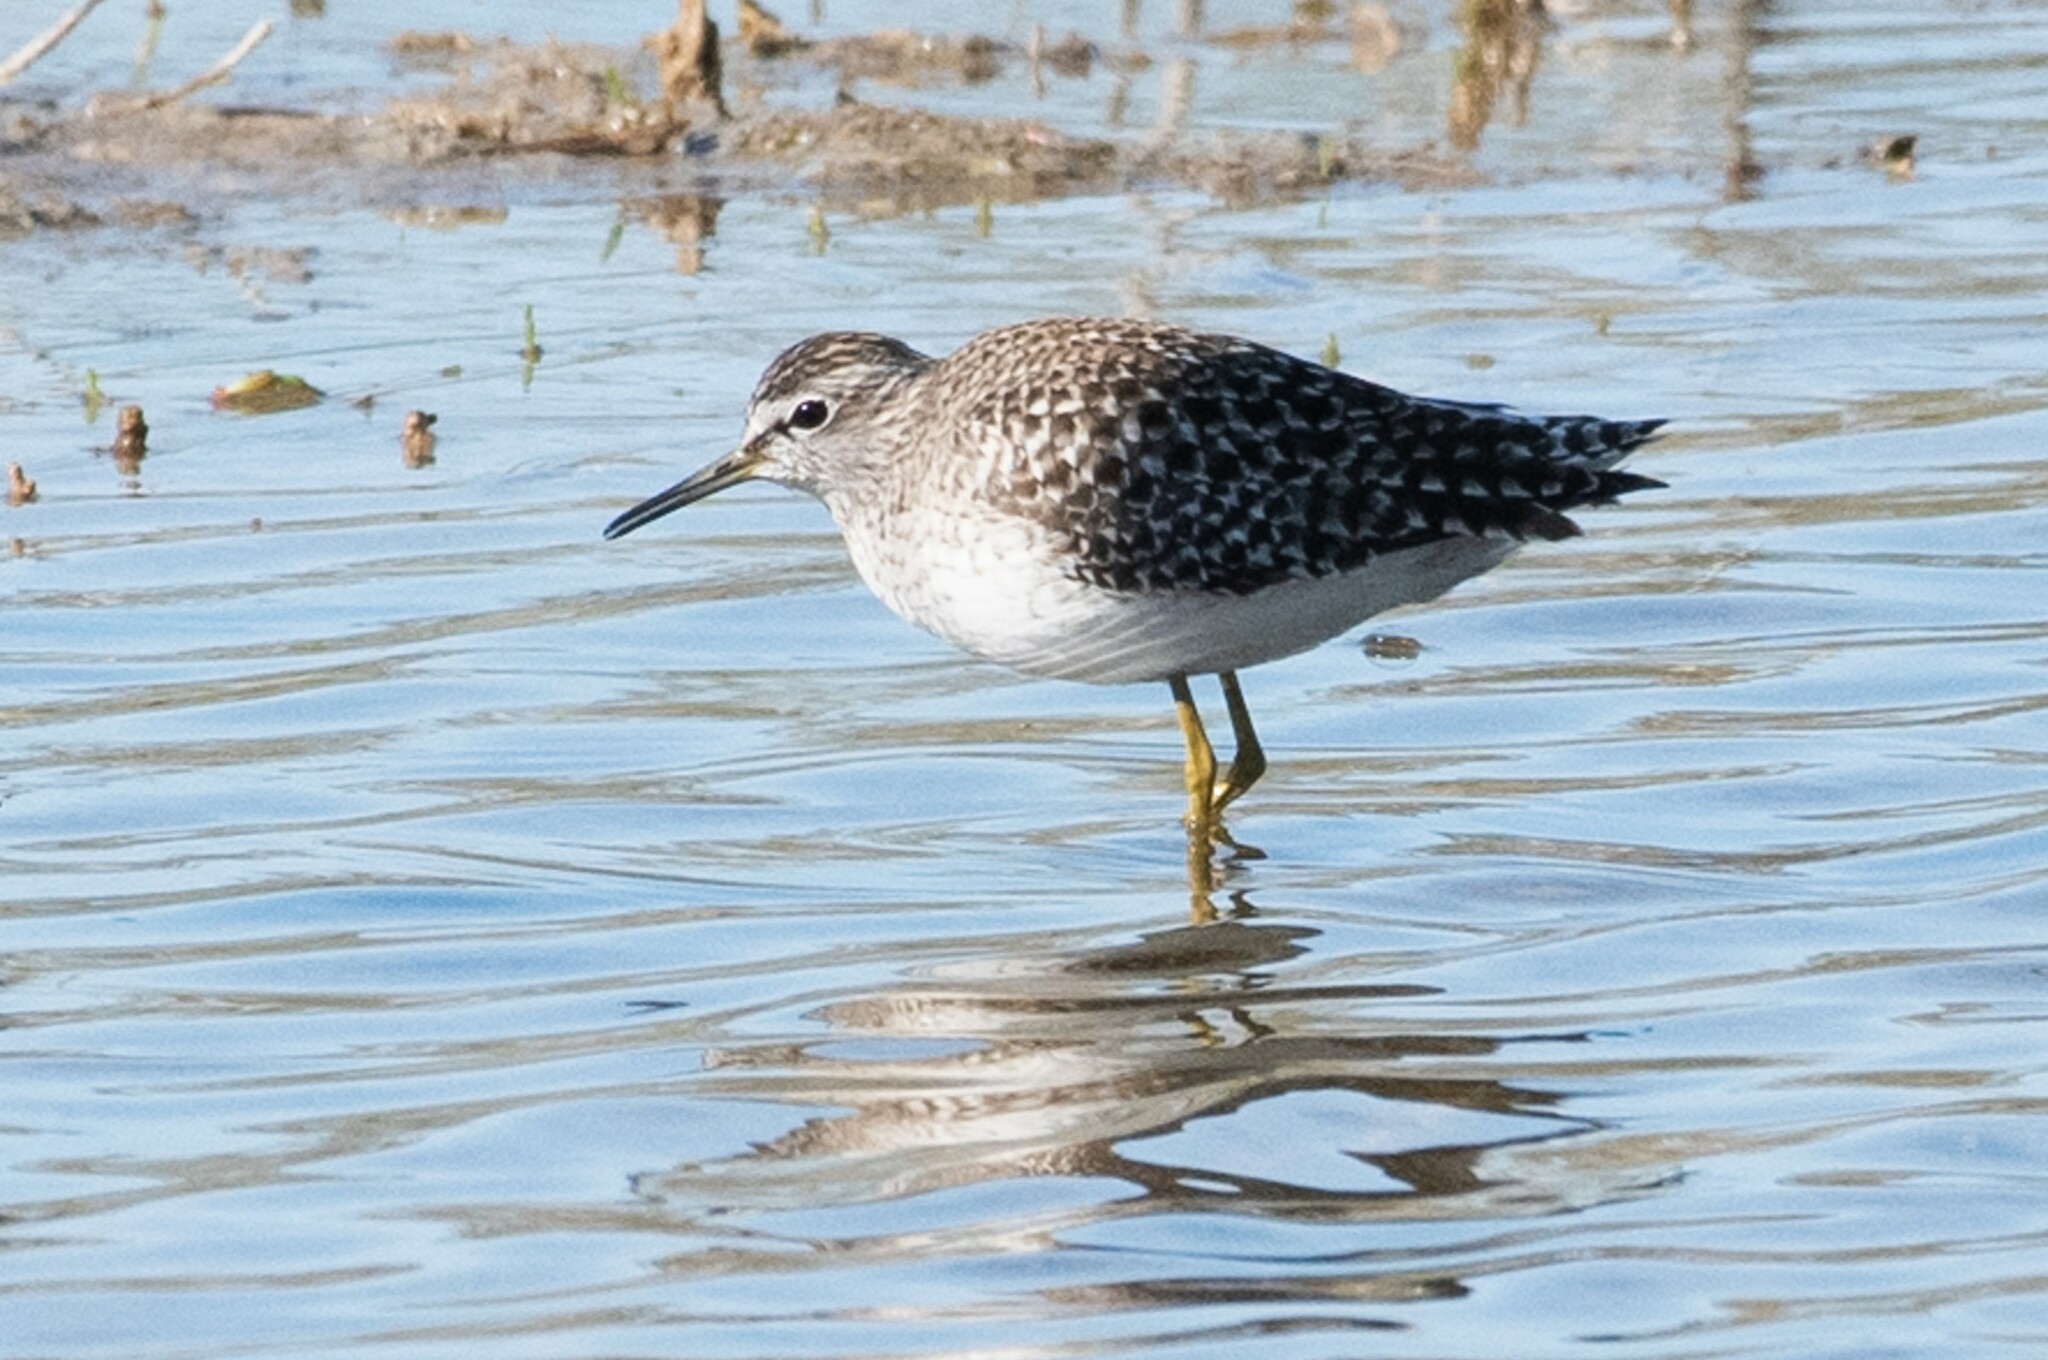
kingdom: Animalia
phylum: Chordata
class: Aves
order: Charadriiformes
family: Scolopacidae
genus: Tringa
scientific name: Tringa glareola
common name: Wood sandpiper
